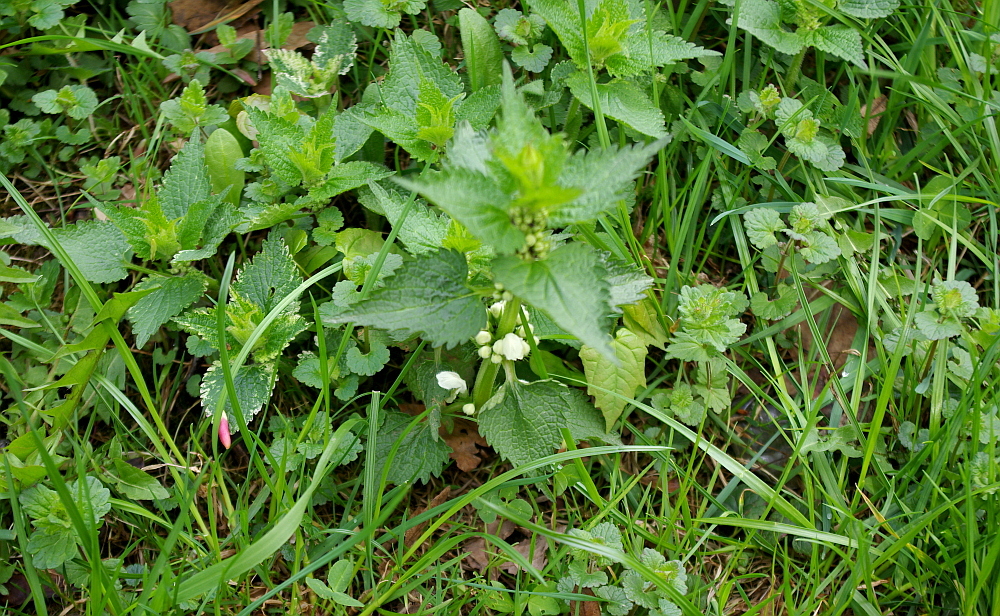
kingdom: Plantae
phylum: Tracheophyta
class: Magnoliopsida
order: Lamiales
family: Lamiaceae
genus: Lamium
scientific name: Lamium album
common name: White dead-nettle
